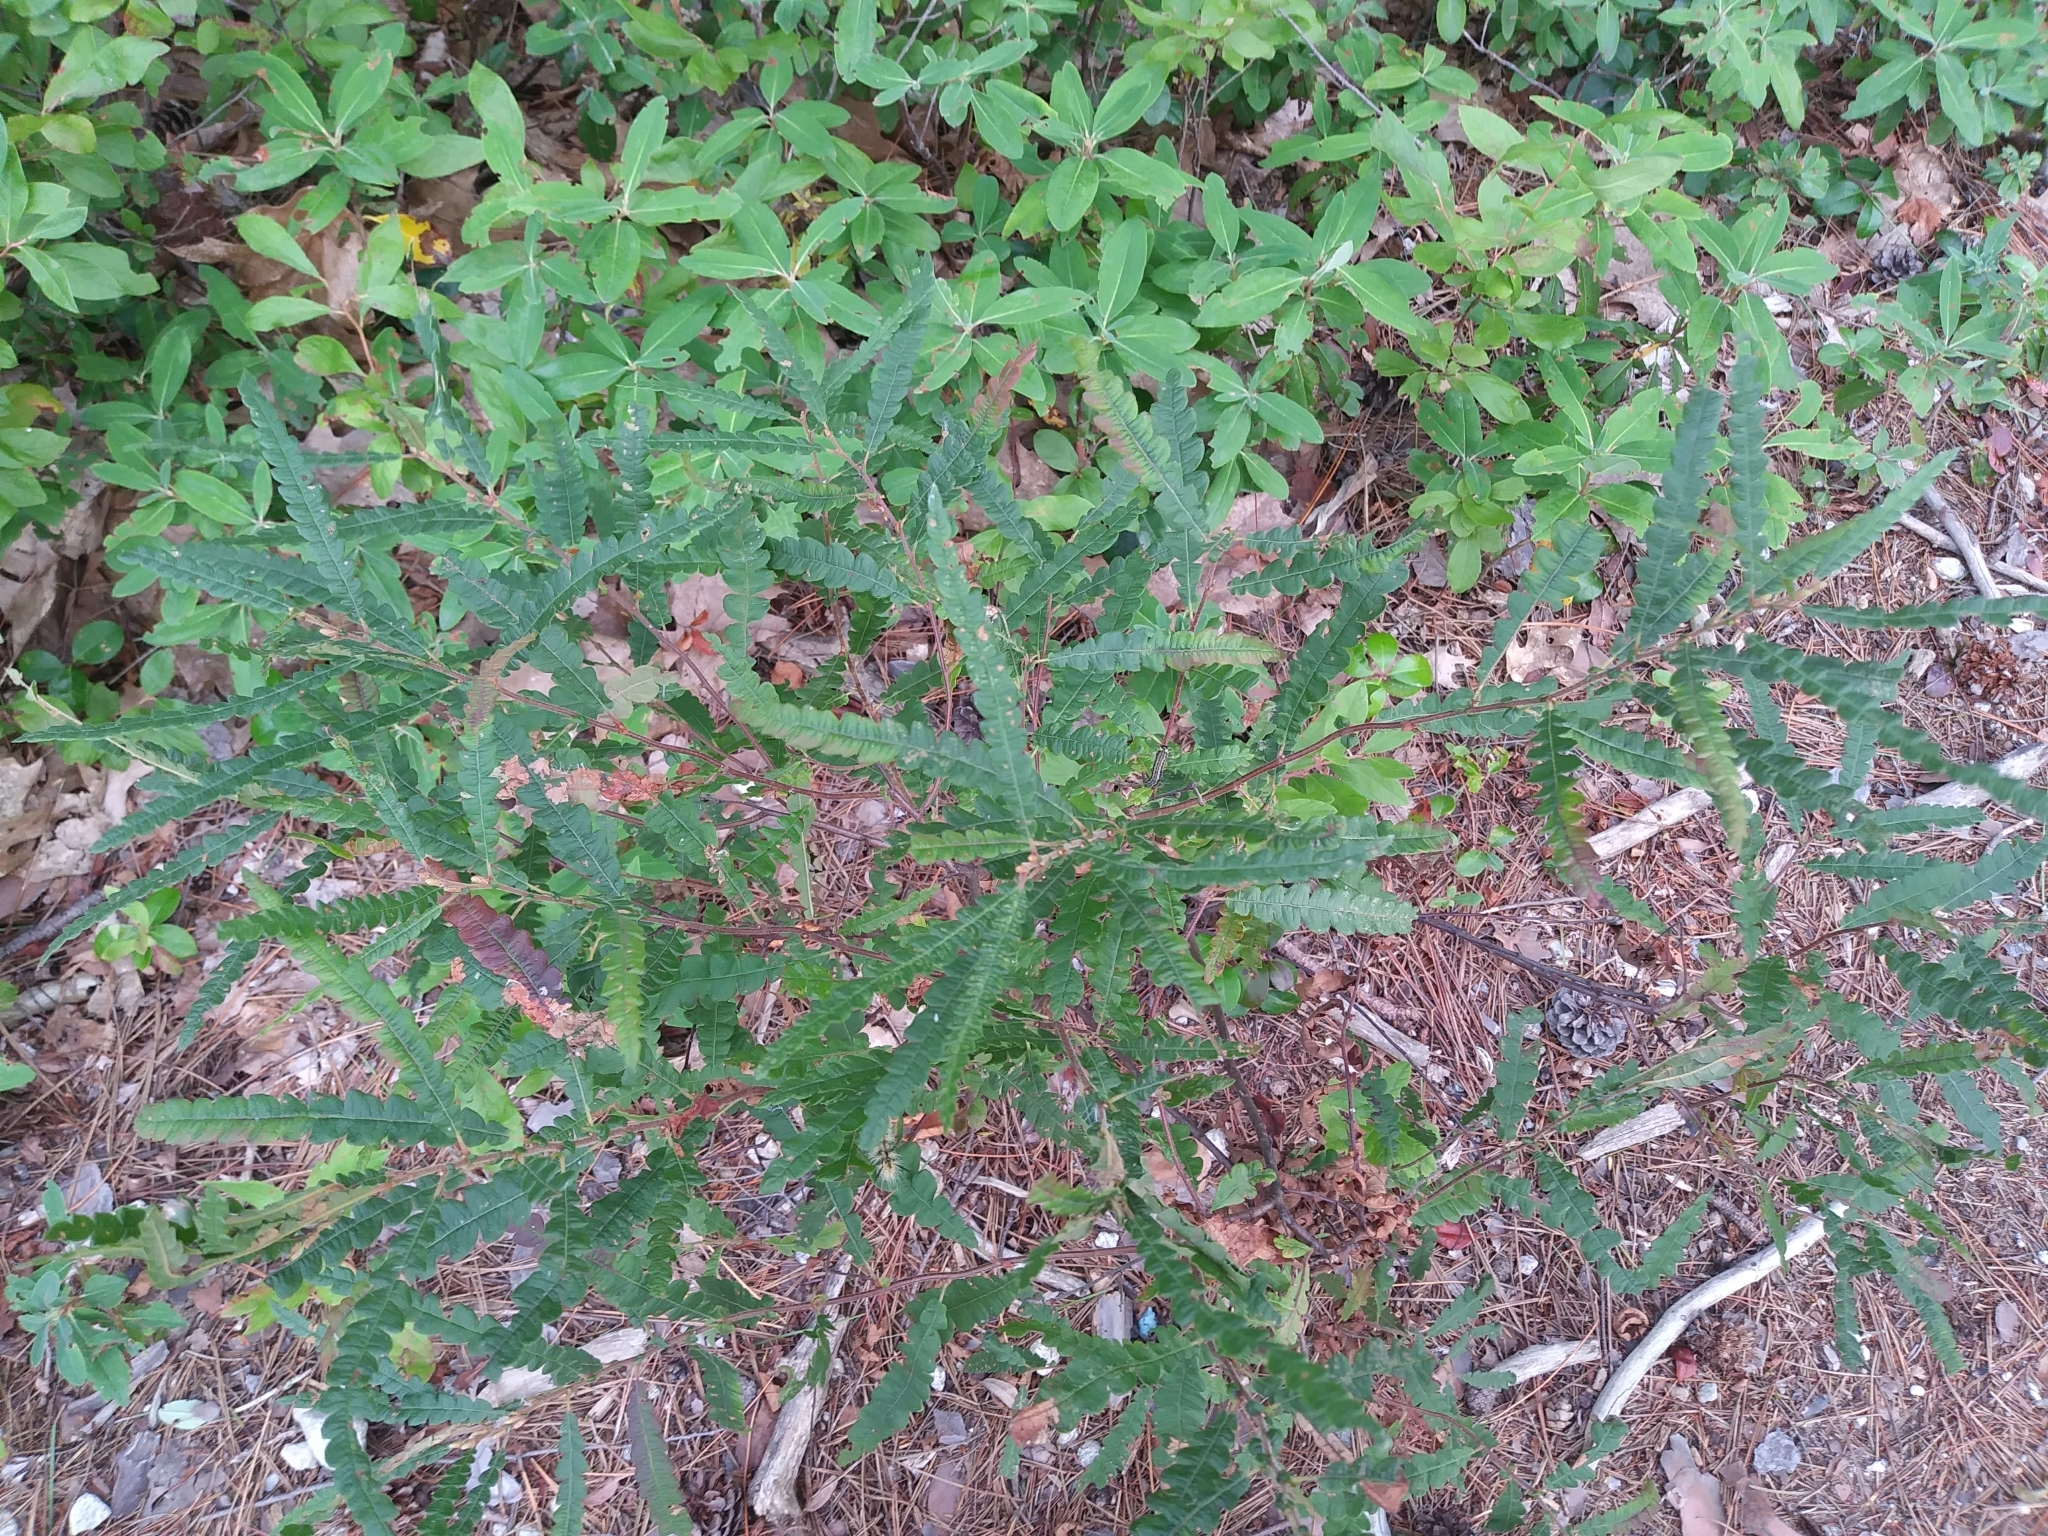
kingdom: Plantae
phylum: Tracheophyta
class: Magnoliopsida
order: Fagales
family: Myricaceae
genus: Comptonia
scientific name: Comptonia peregrina
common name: Sweet-fern
